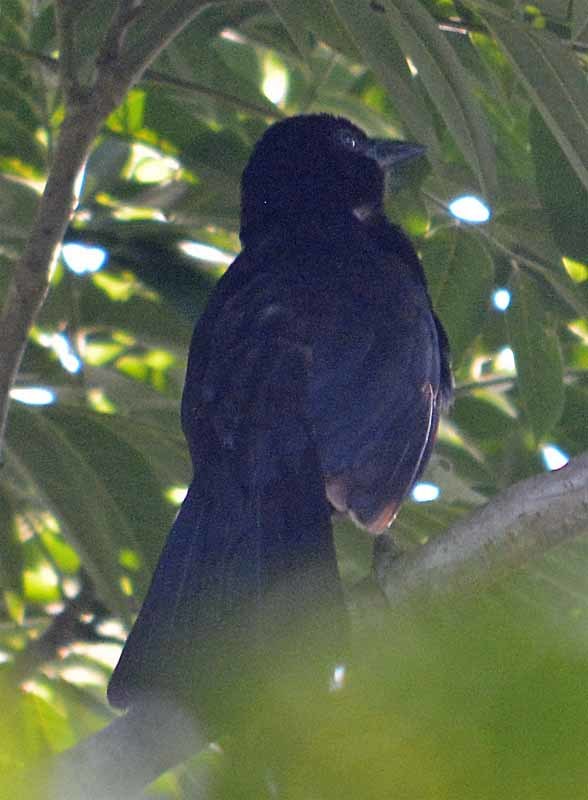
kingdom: Animalia
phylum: Chordata
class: Aves
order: Passeriformes
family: Icteridae
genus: Dives
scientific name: Dives dives
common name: Melodious blackbird
